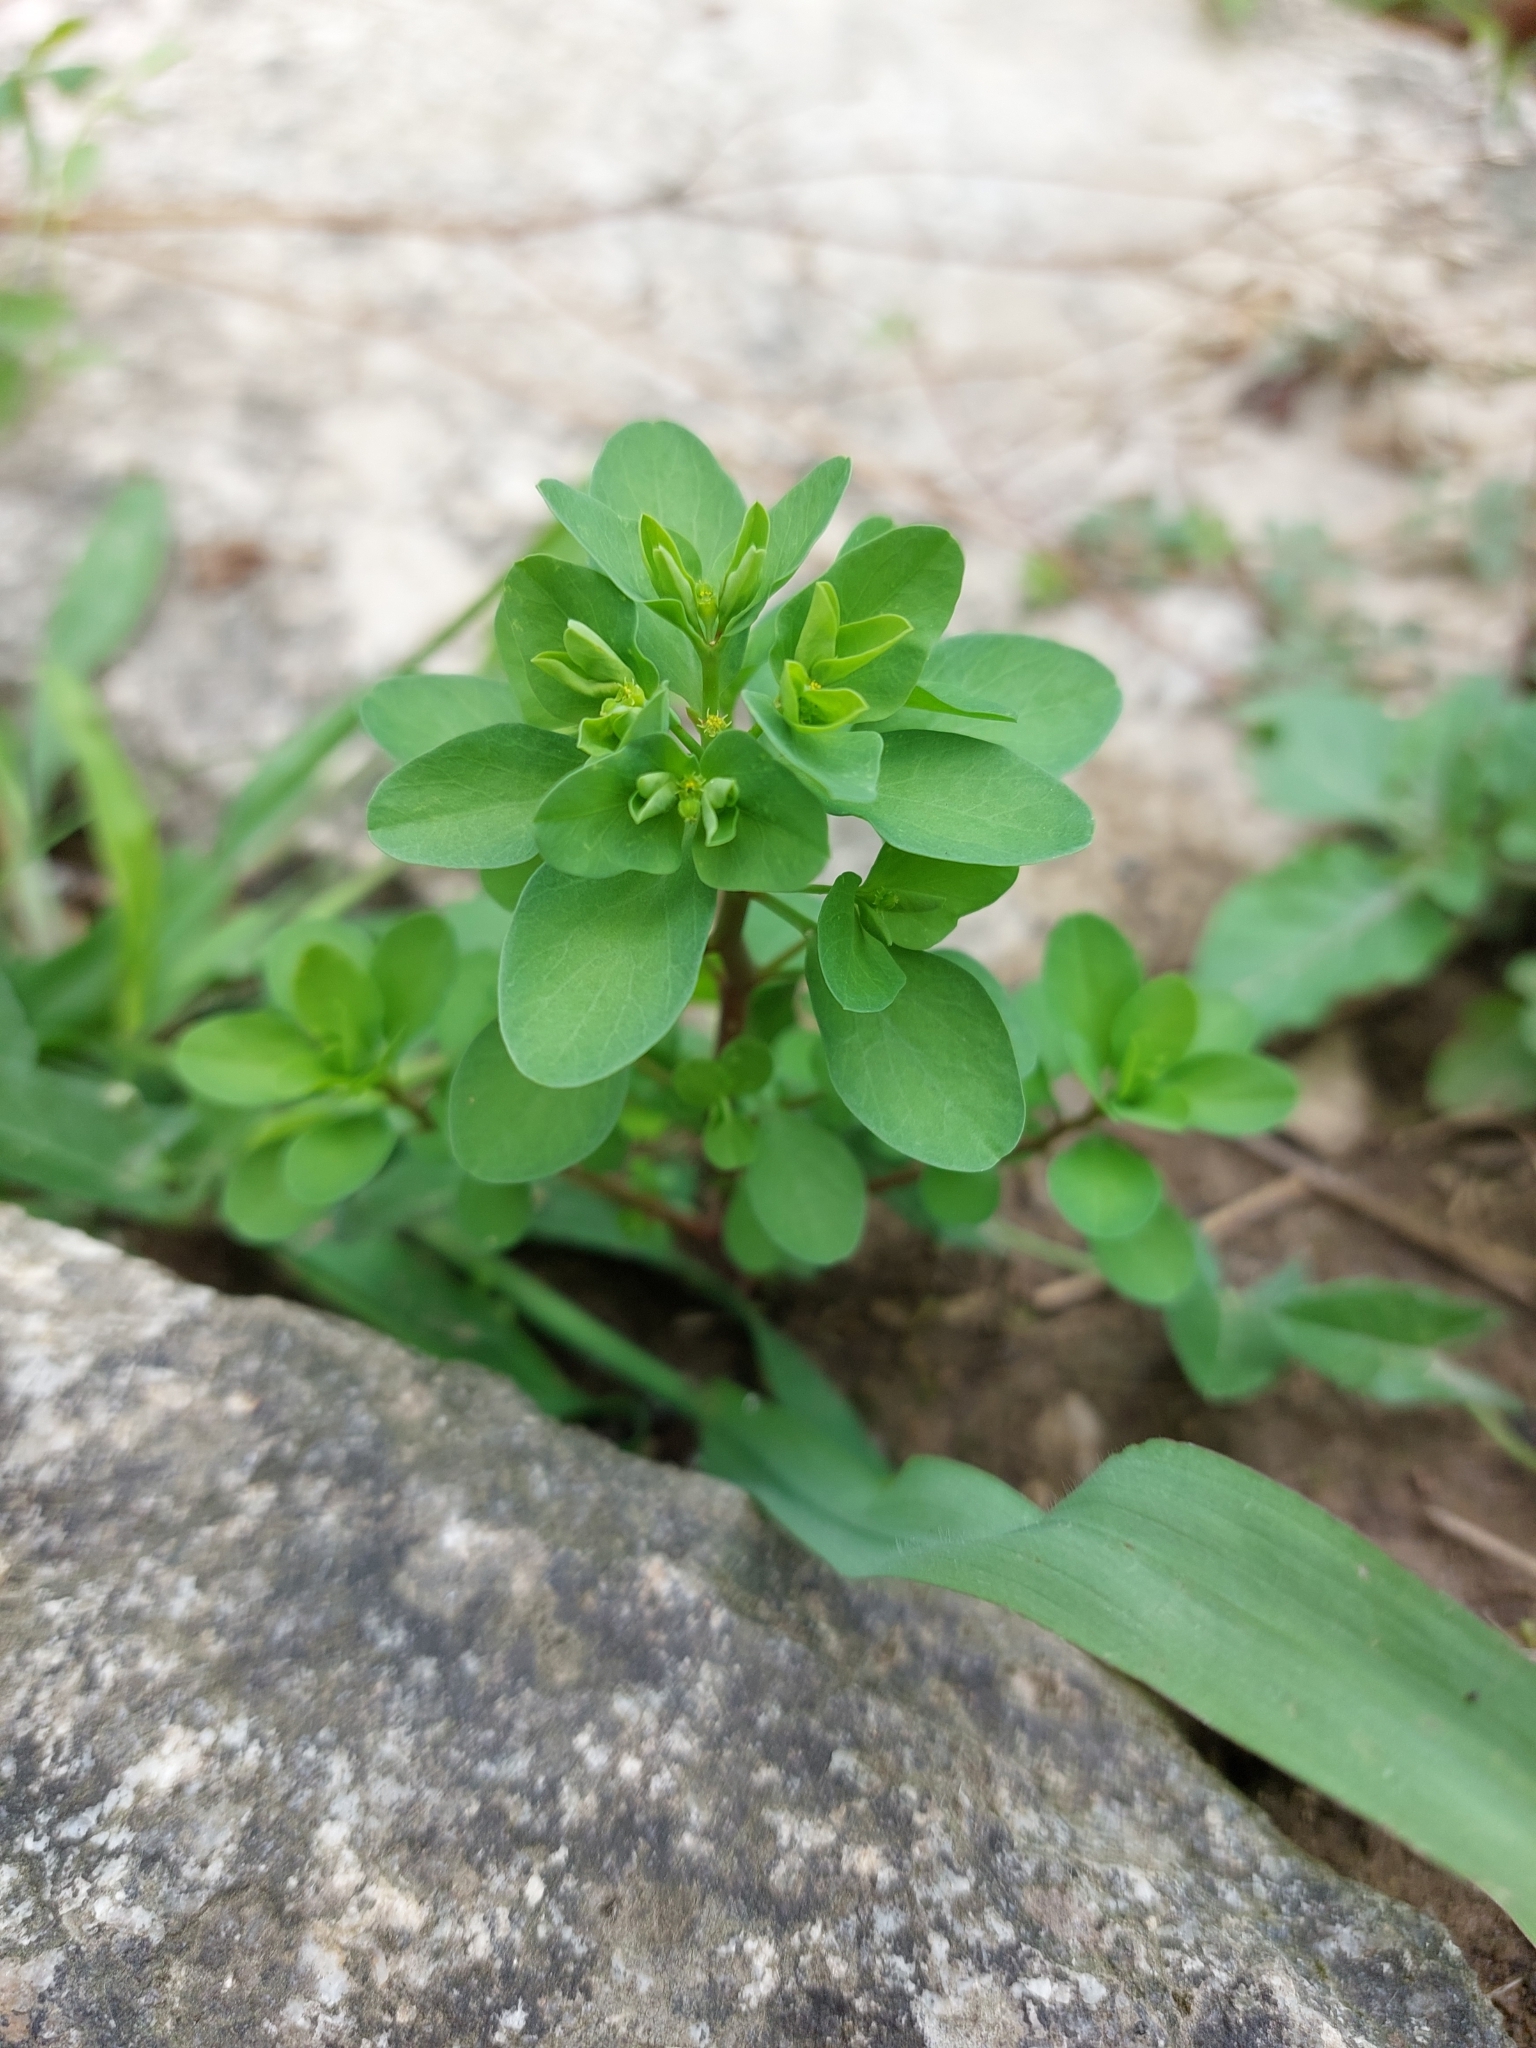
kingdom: Plantae
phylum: Tracheophyta
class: Magnoliopsida
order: Malpighiales
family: Euphorbiaceae
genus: Euphorbia
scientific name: Euphorbia peplus
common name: Petty spurge
